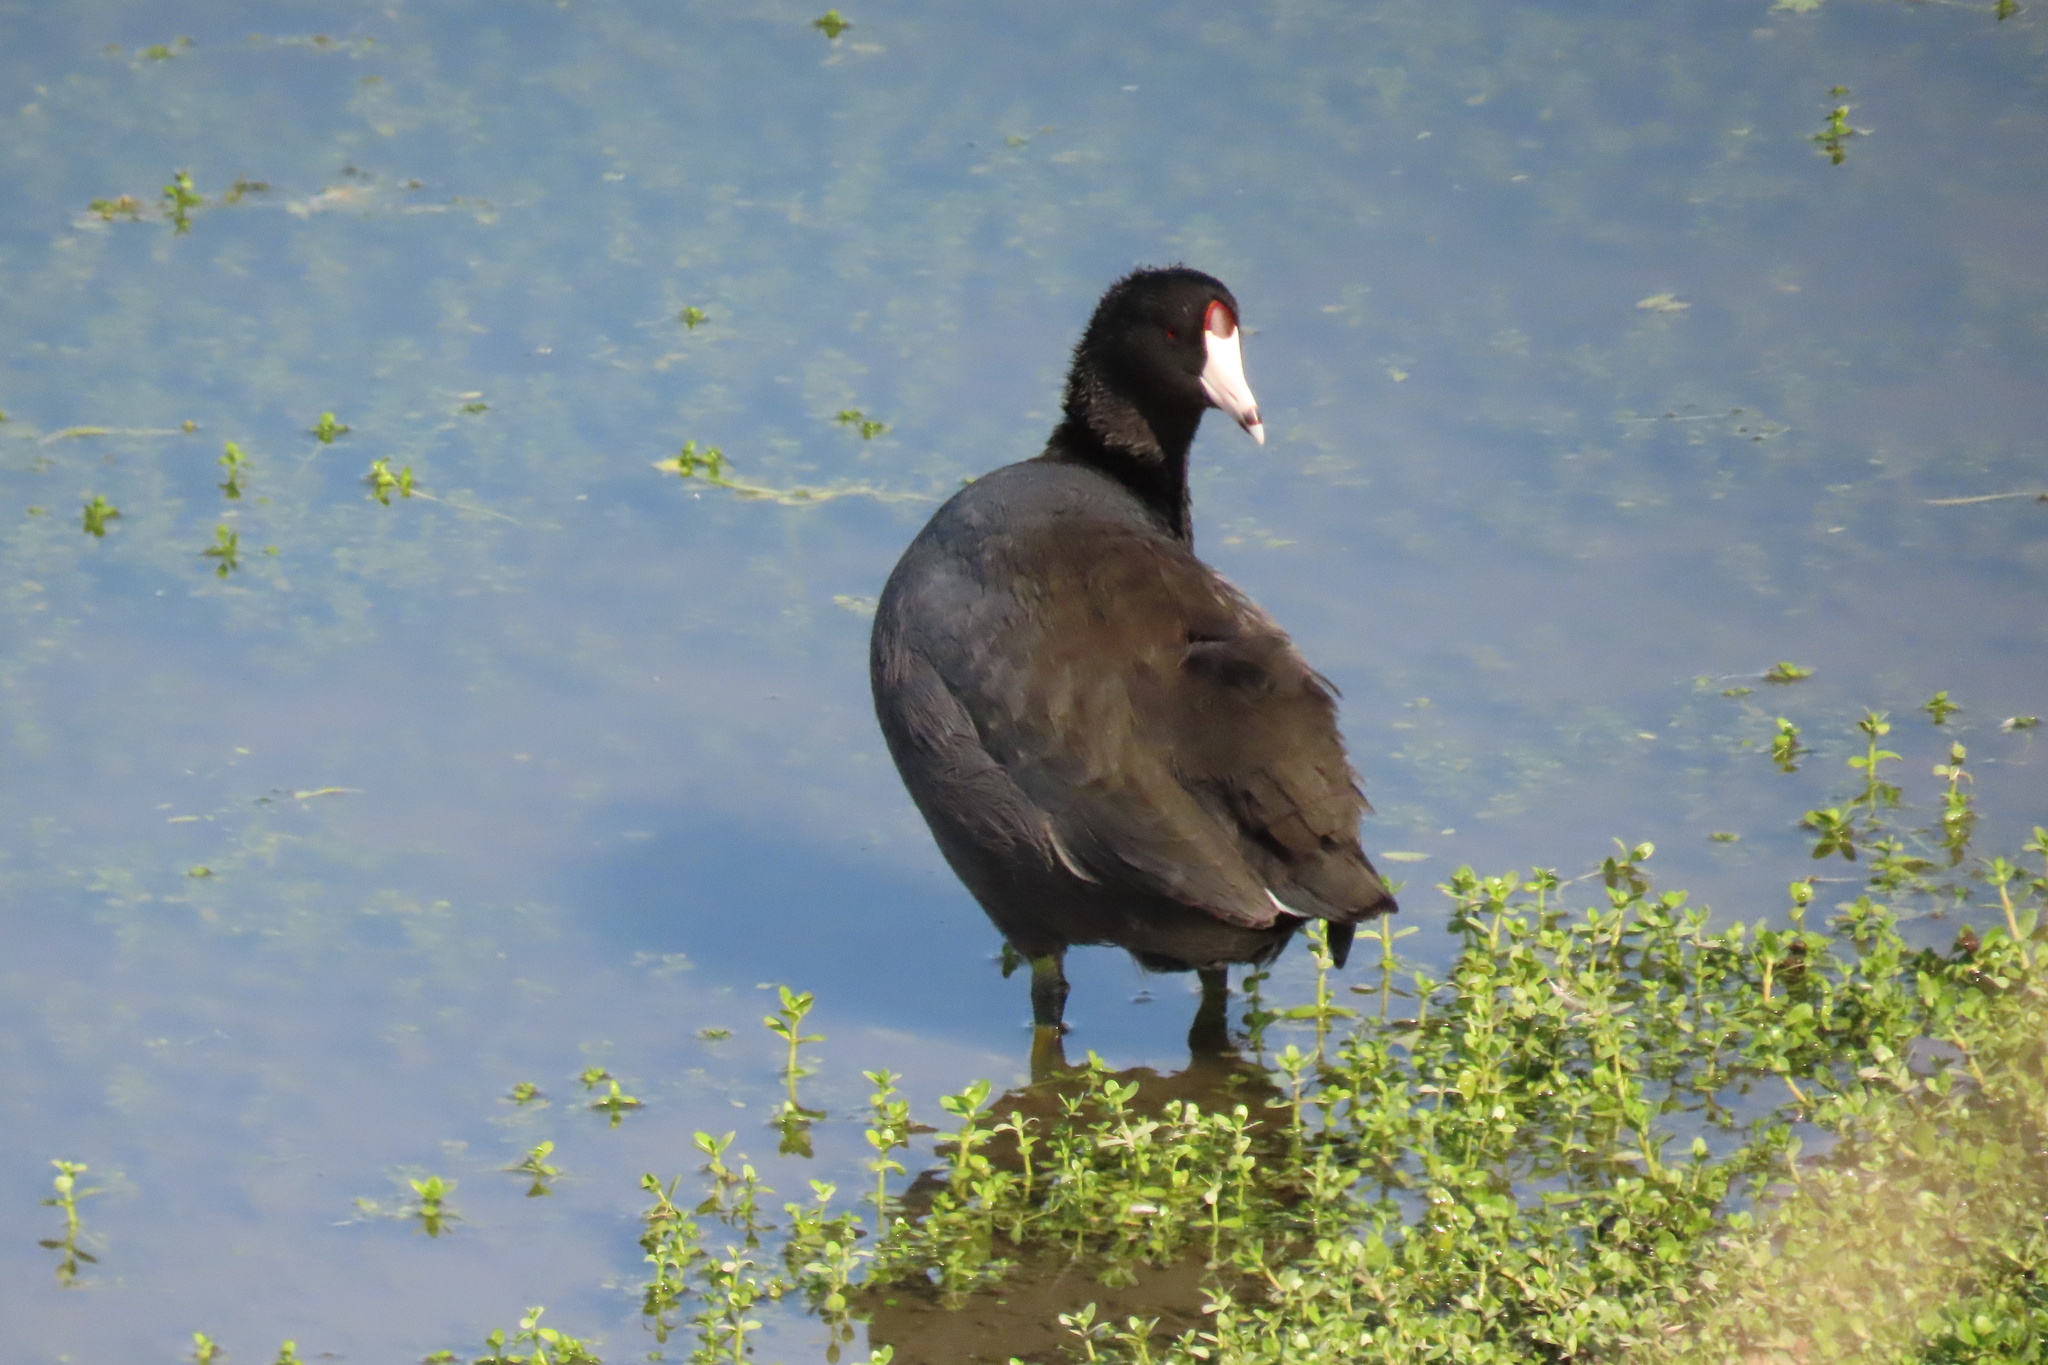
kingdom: Animalia
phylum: Chordata
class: Aves
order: Gruiformes
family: Rallidae
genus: Fulica
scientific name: Fulica americana
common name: American coot
